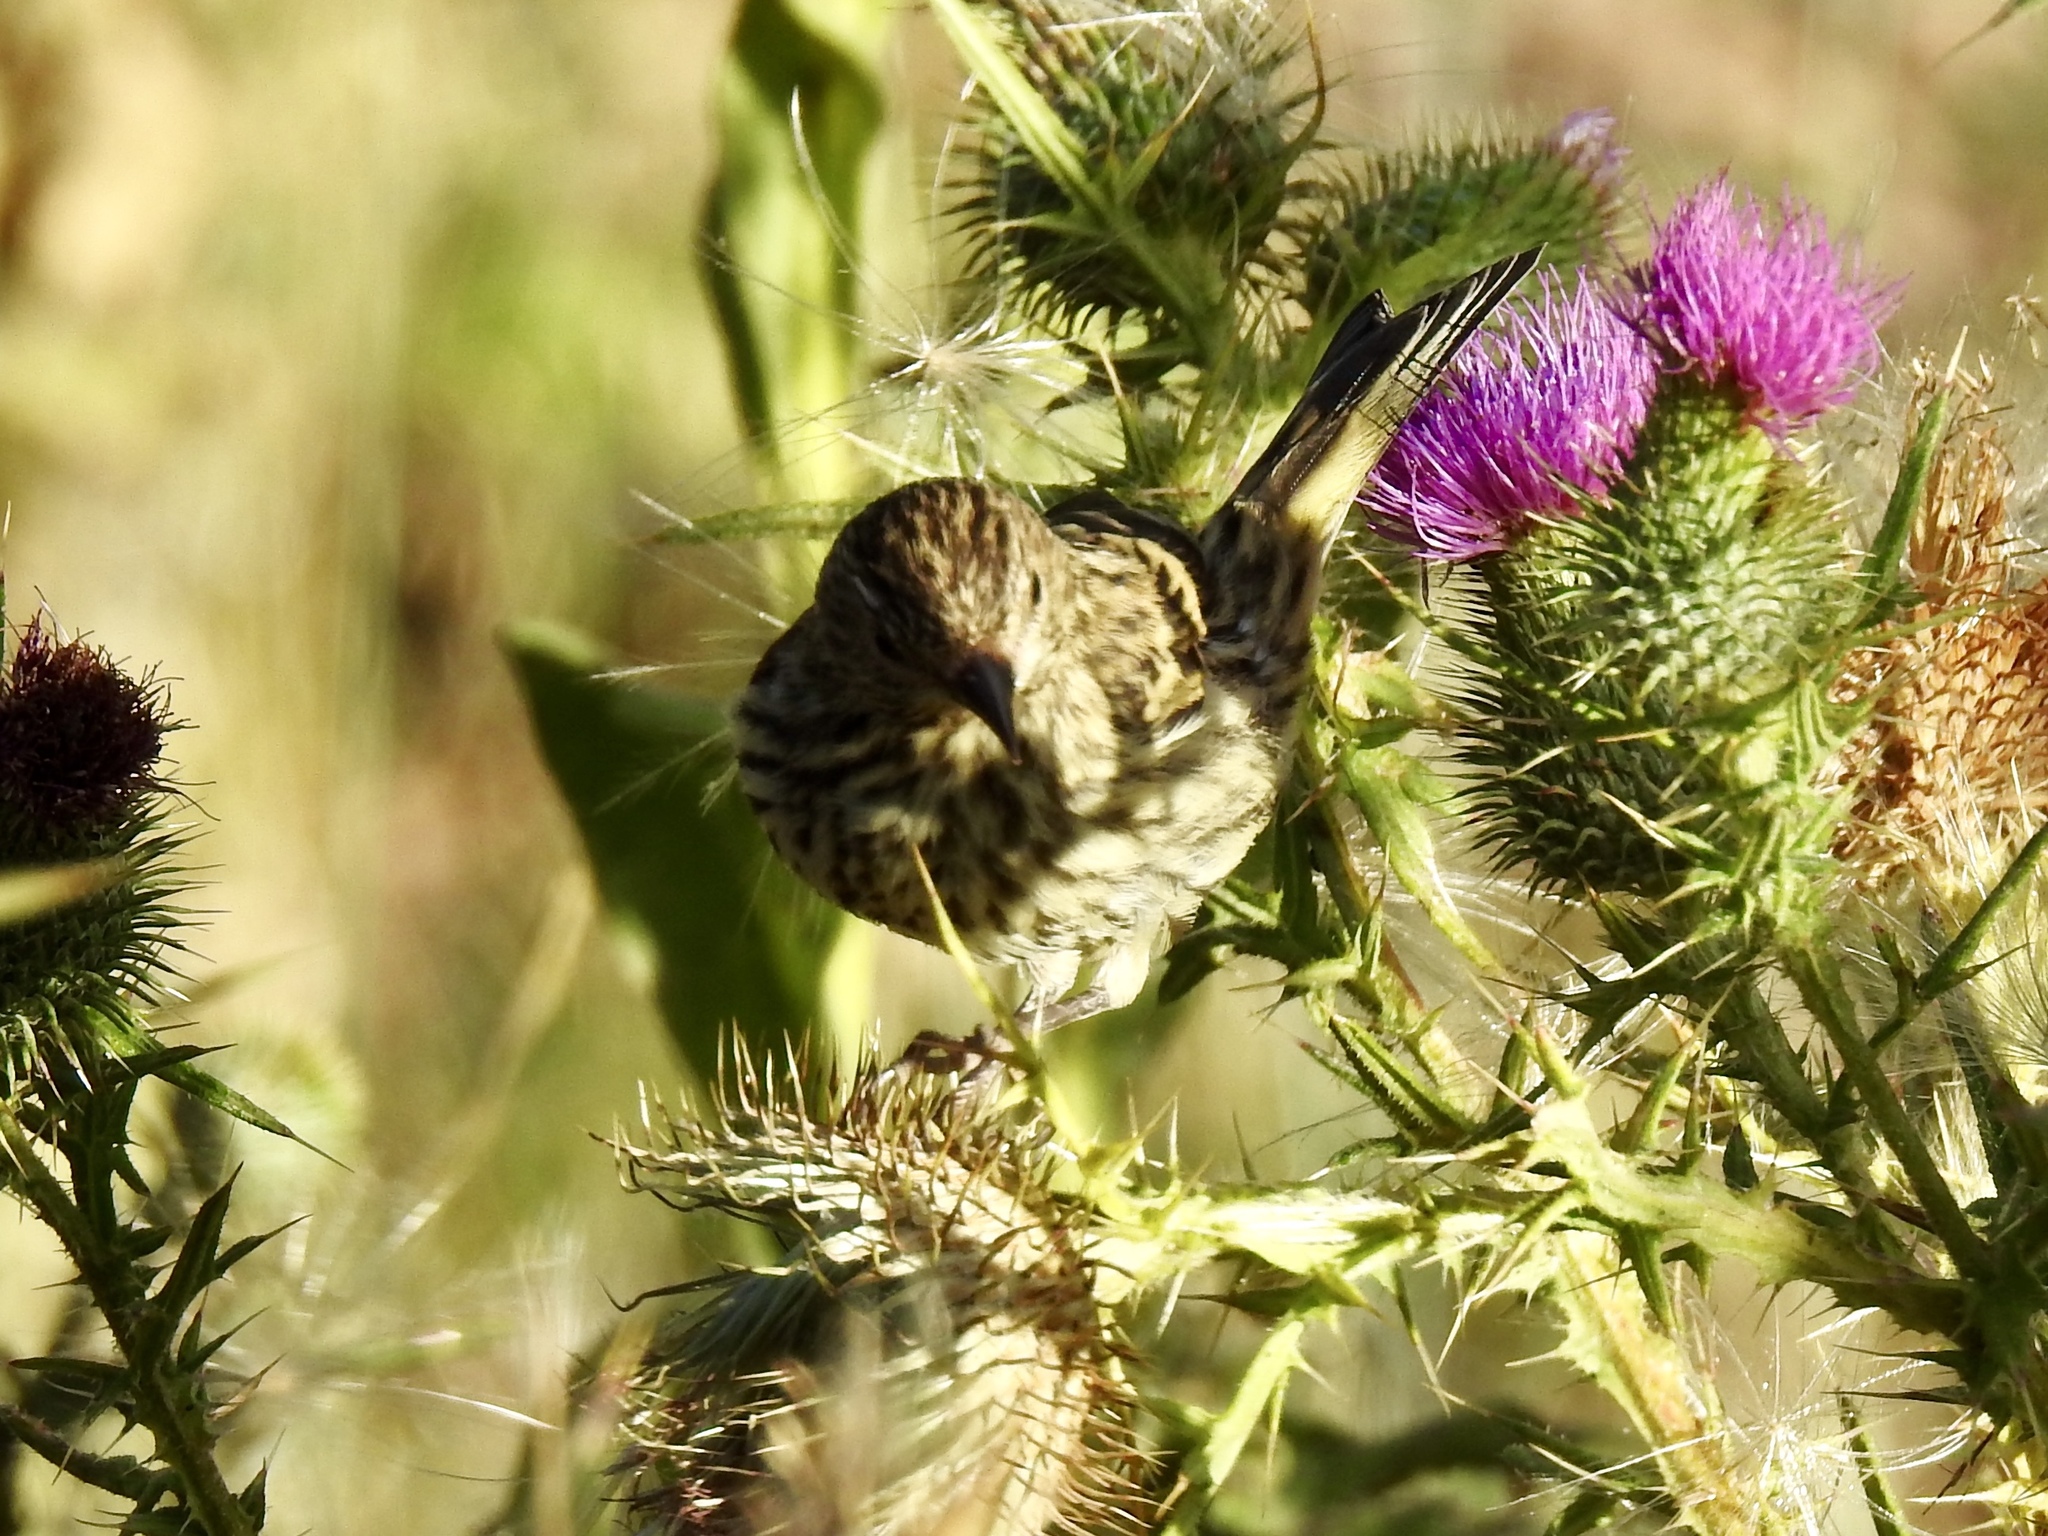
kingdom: Animalia
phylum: Chordata
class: Aves
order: Passeriformes
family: Fringillidae
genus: Spinus
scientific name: Spinus pinus
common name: Pine siskin
